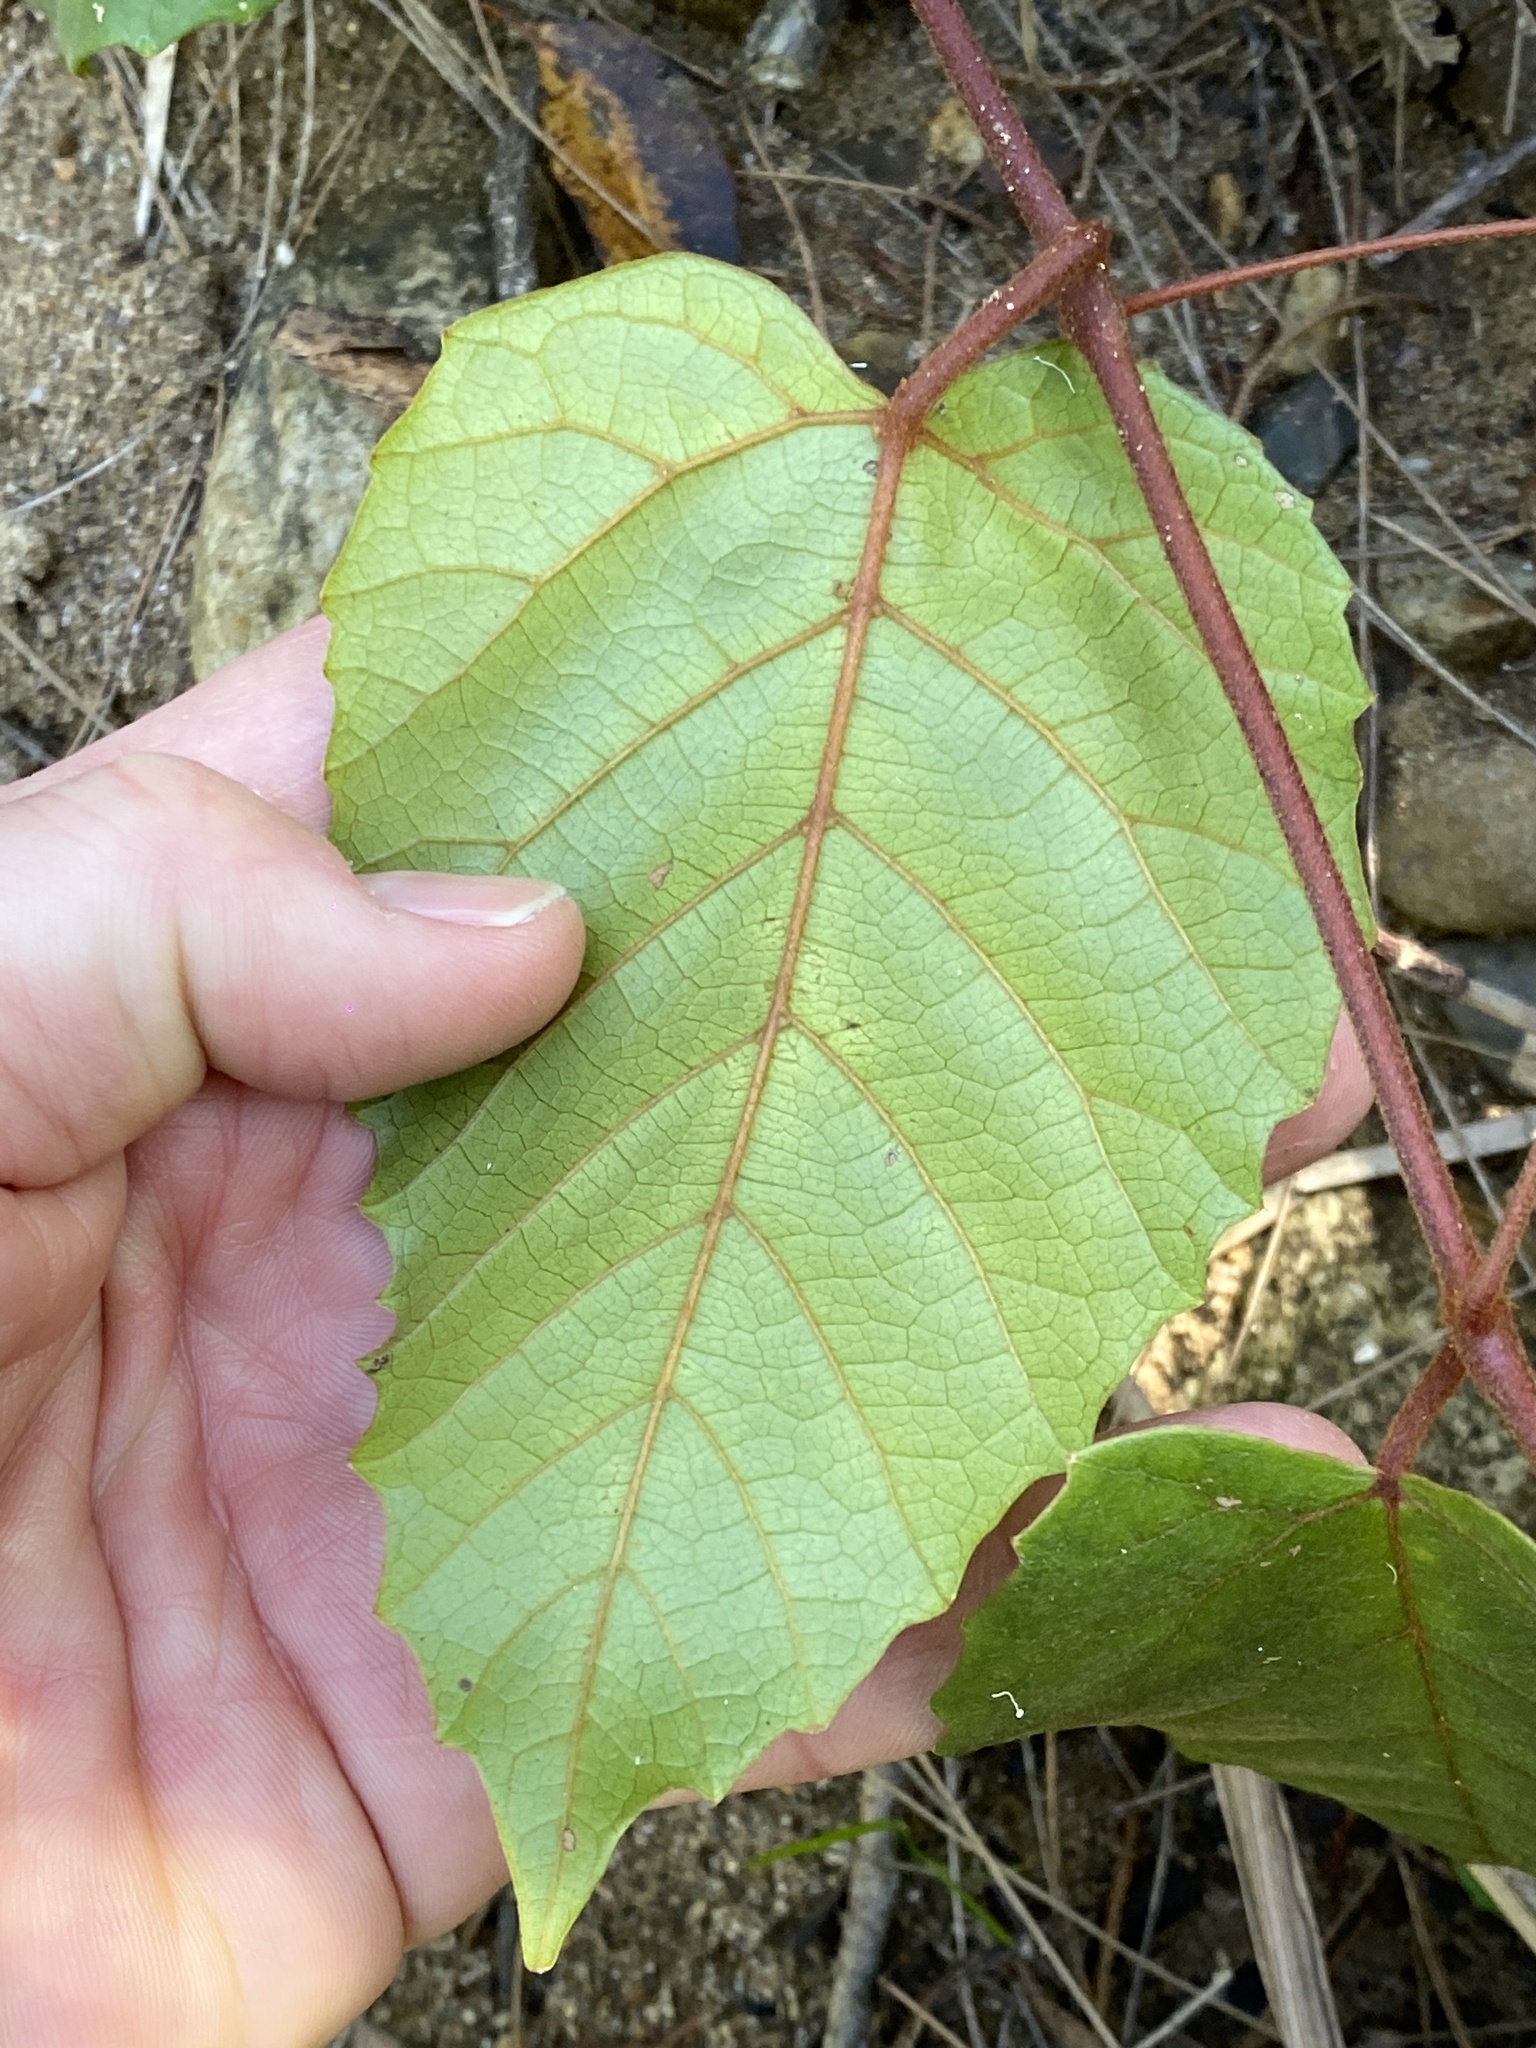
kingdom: Plantae
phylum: Tracheophyta
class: Magnoliopsida
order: Vitales
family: Vitaceae
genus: Cissus
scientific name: Cissus antarctica
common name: Kangaroo vine
